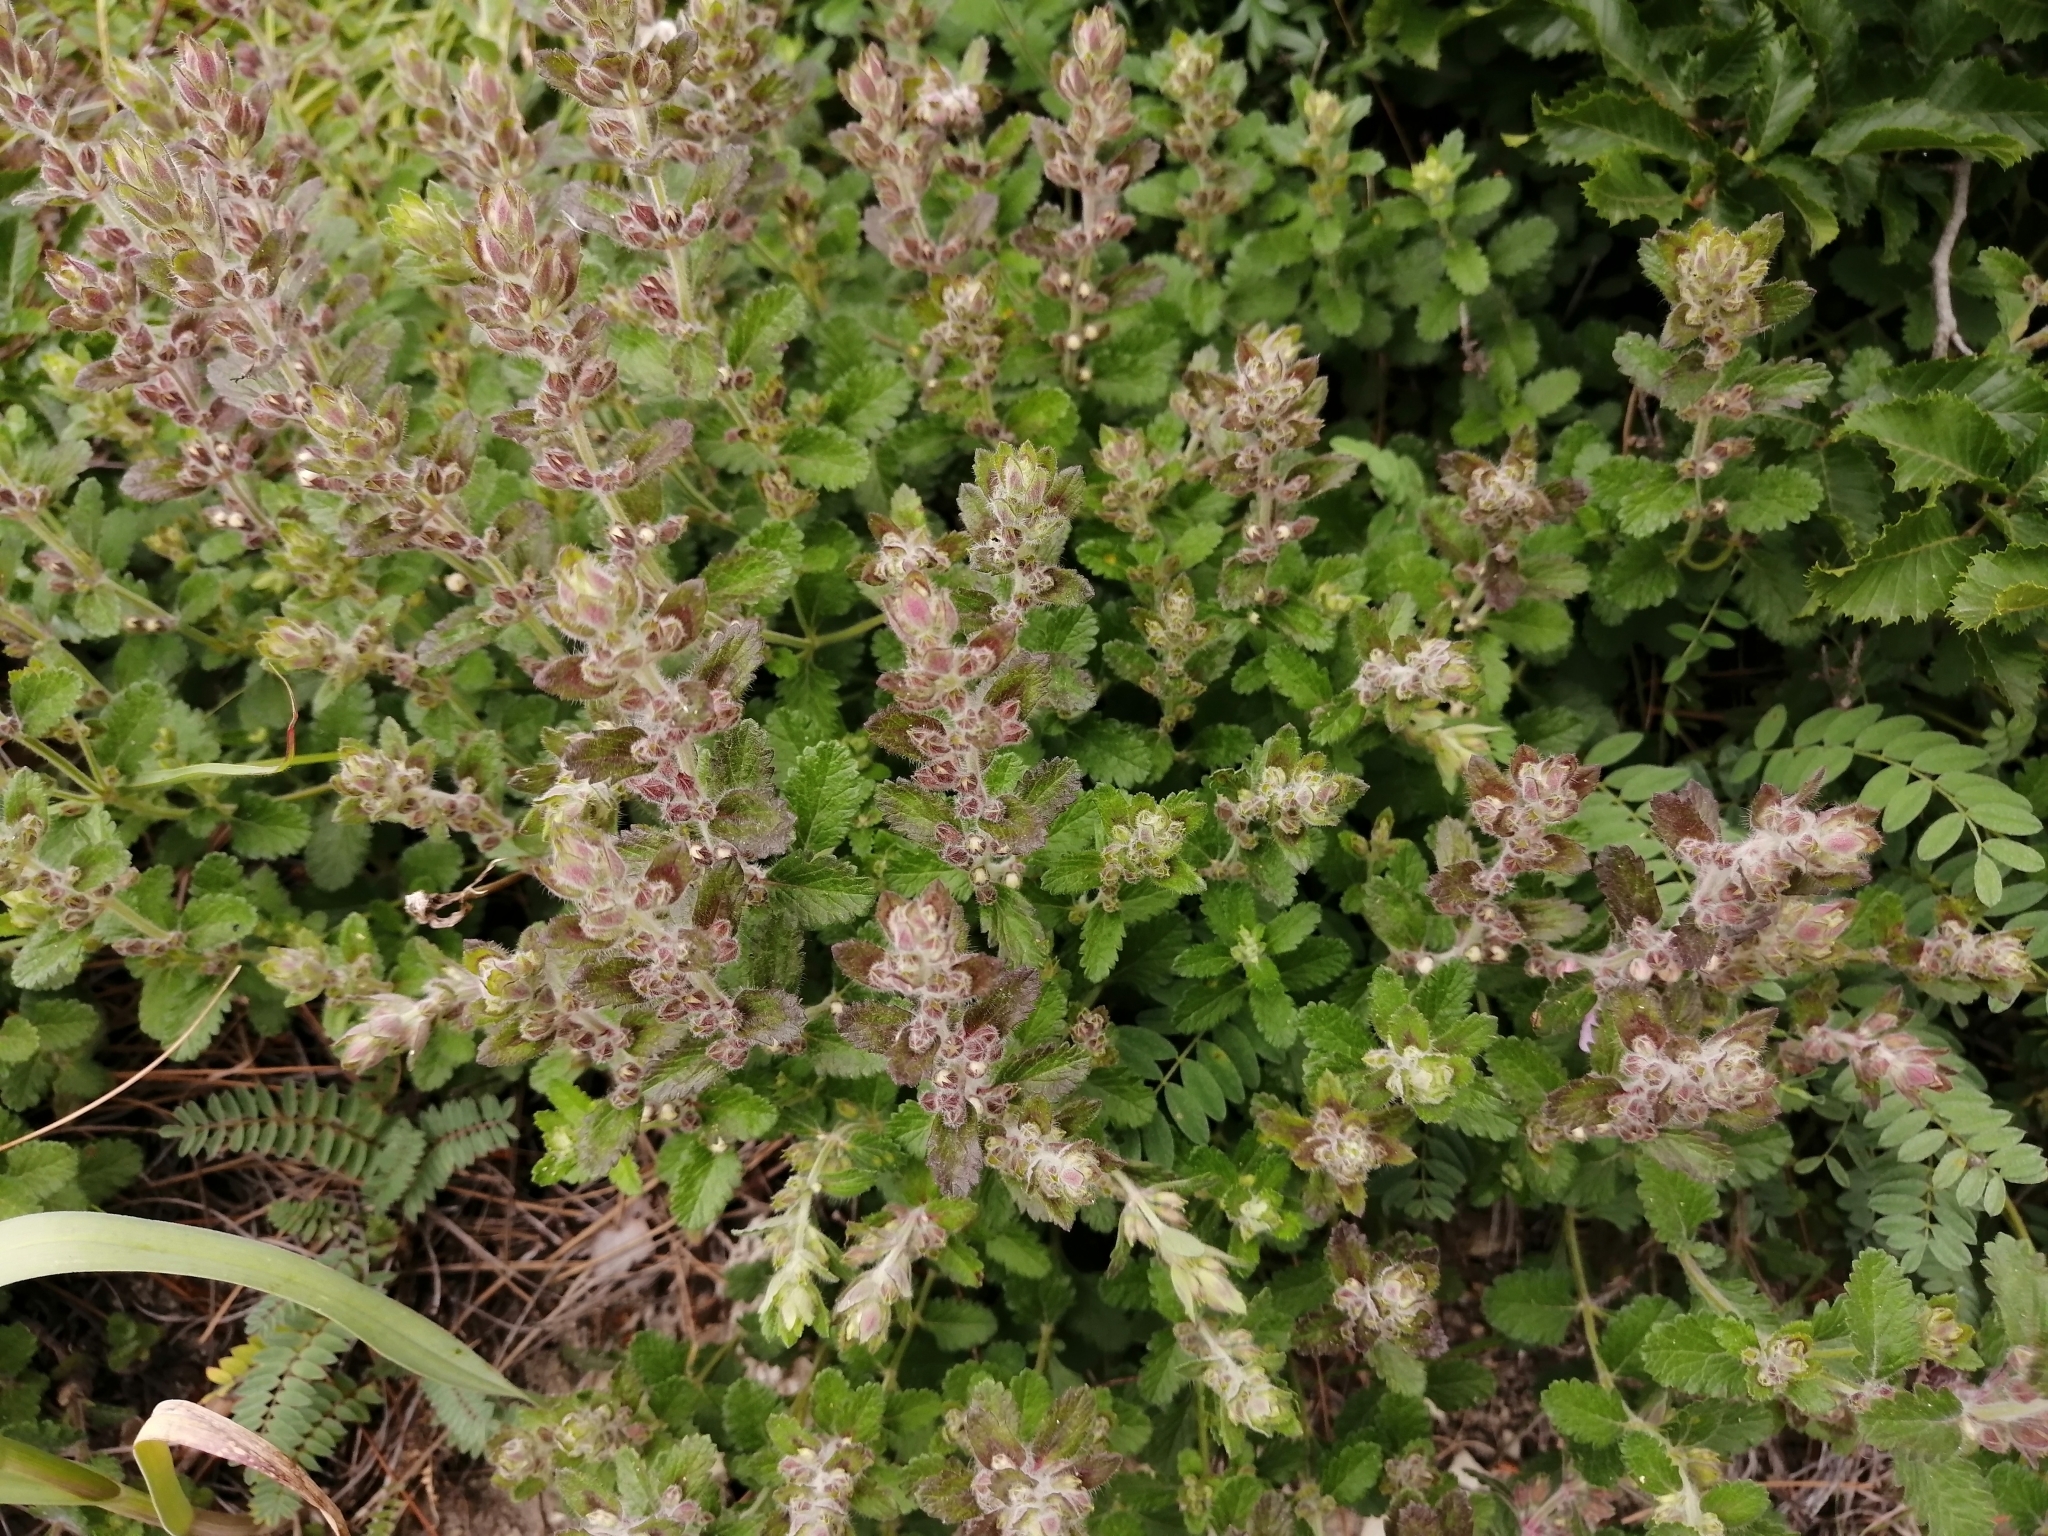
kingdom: Plantae
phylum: Tracheophyta
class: Magnoliopsida
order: Lamiales
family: Lamiaceae
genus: Teucrium
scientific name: Teucrium chamaedrys
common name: Wall germander
